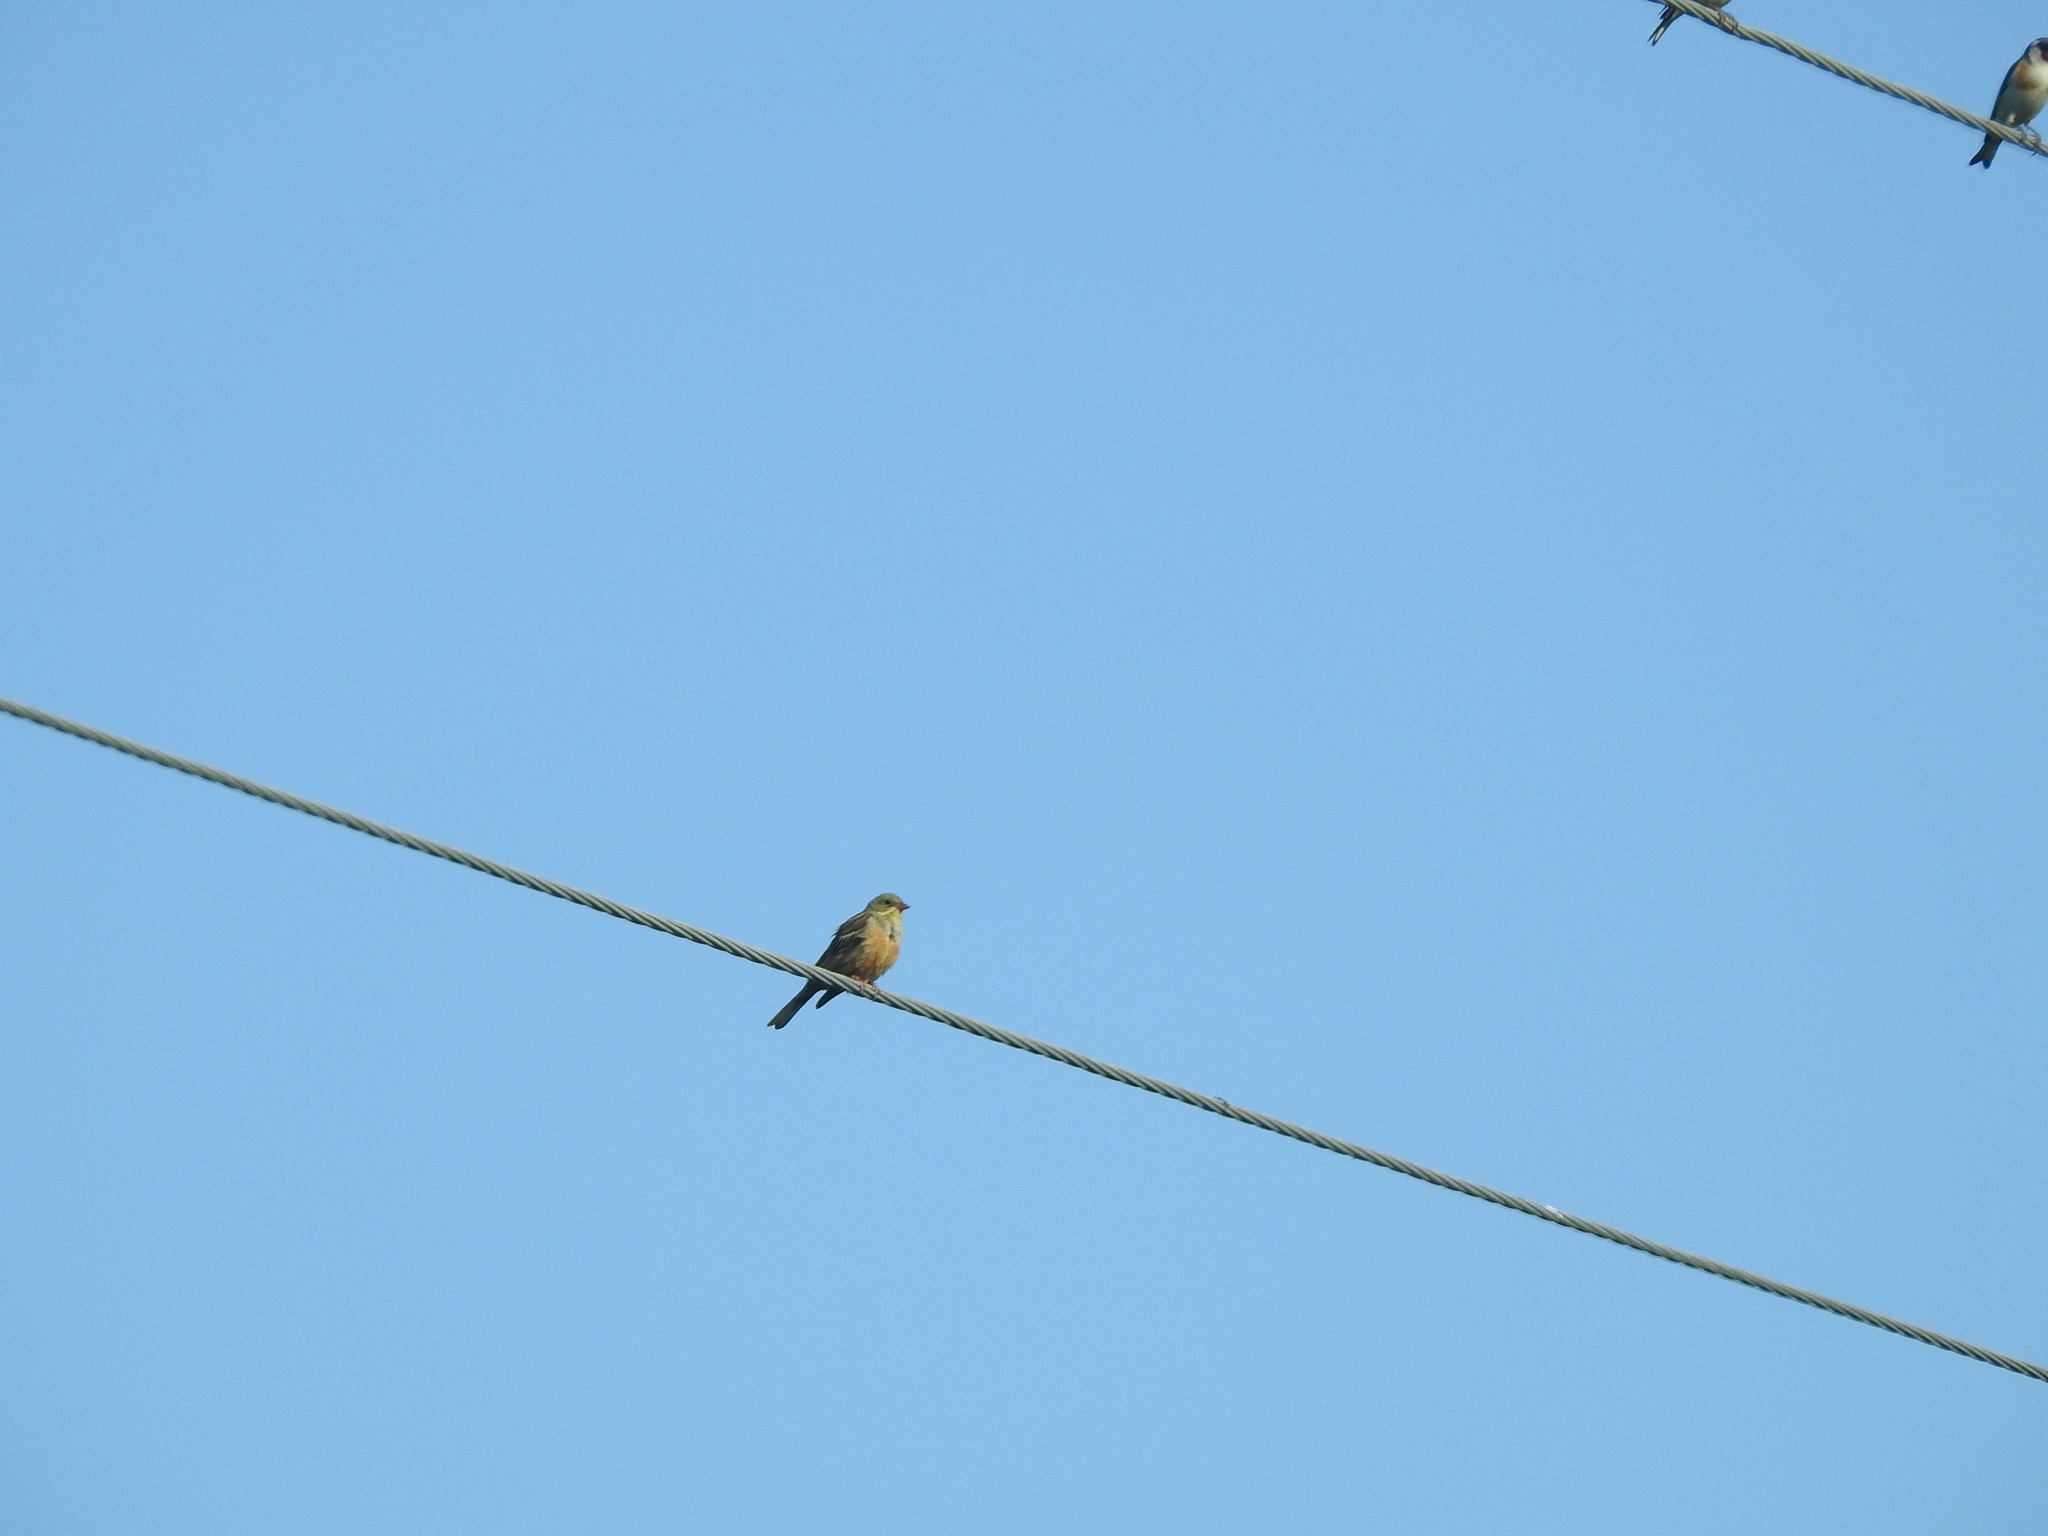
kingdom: Animalia
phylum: Chordata
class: Aves
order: Passeriformes
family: Emberizidae
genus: Emberiza
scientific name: Emberiza hortulana
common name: Ortolan bunting
